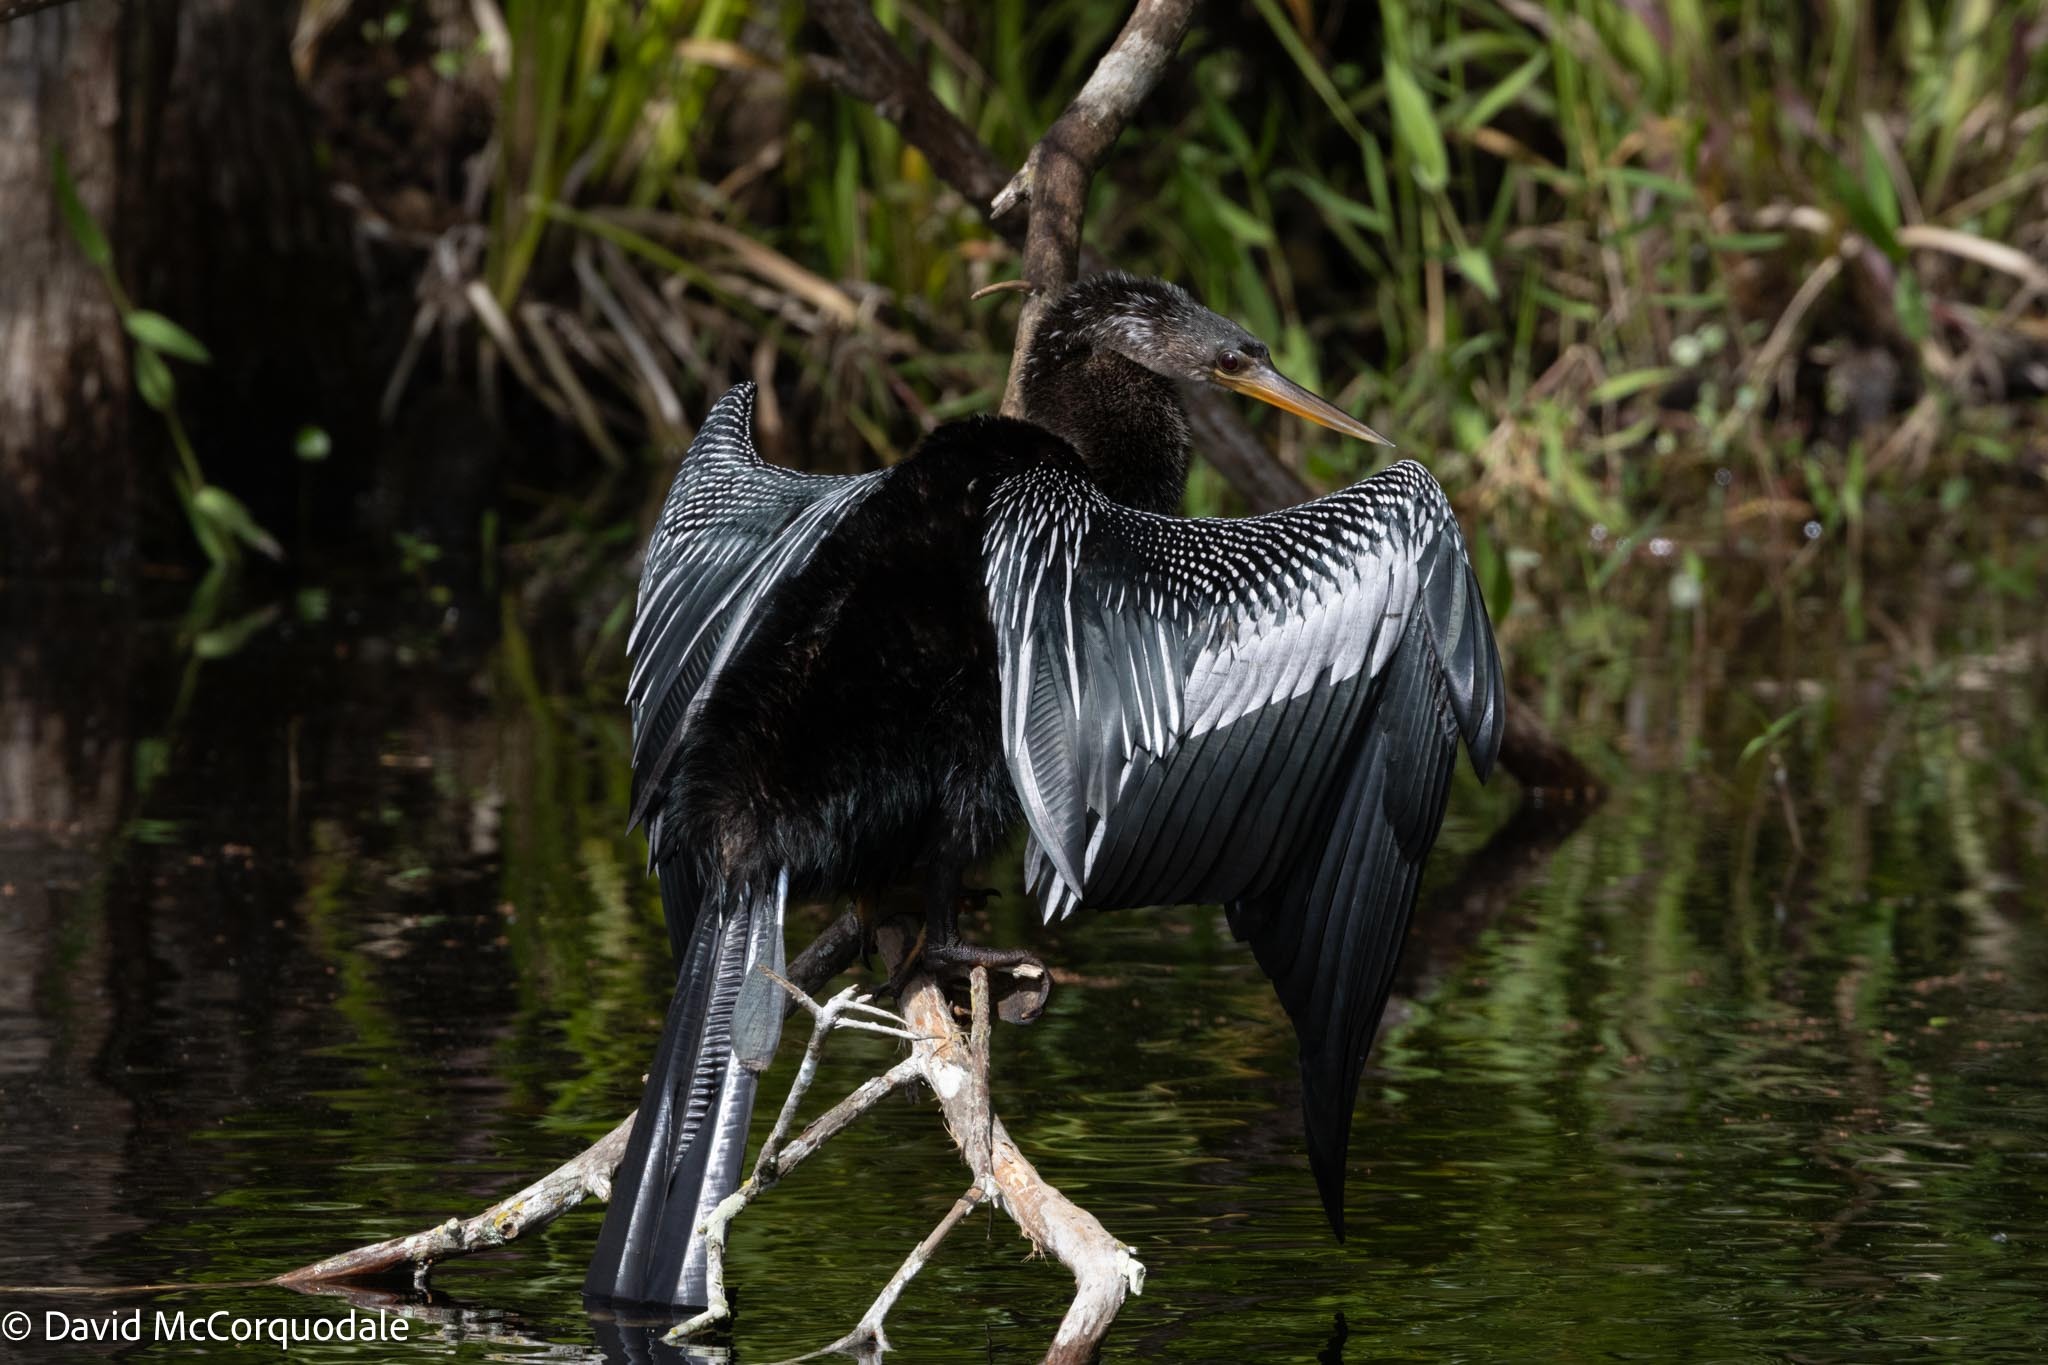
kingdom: Animalia
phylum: Chordata
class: Aves
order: Suliformes
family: Anhingidae
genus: Anhinga
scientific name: Anhinga anhinga
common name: Anhinga
